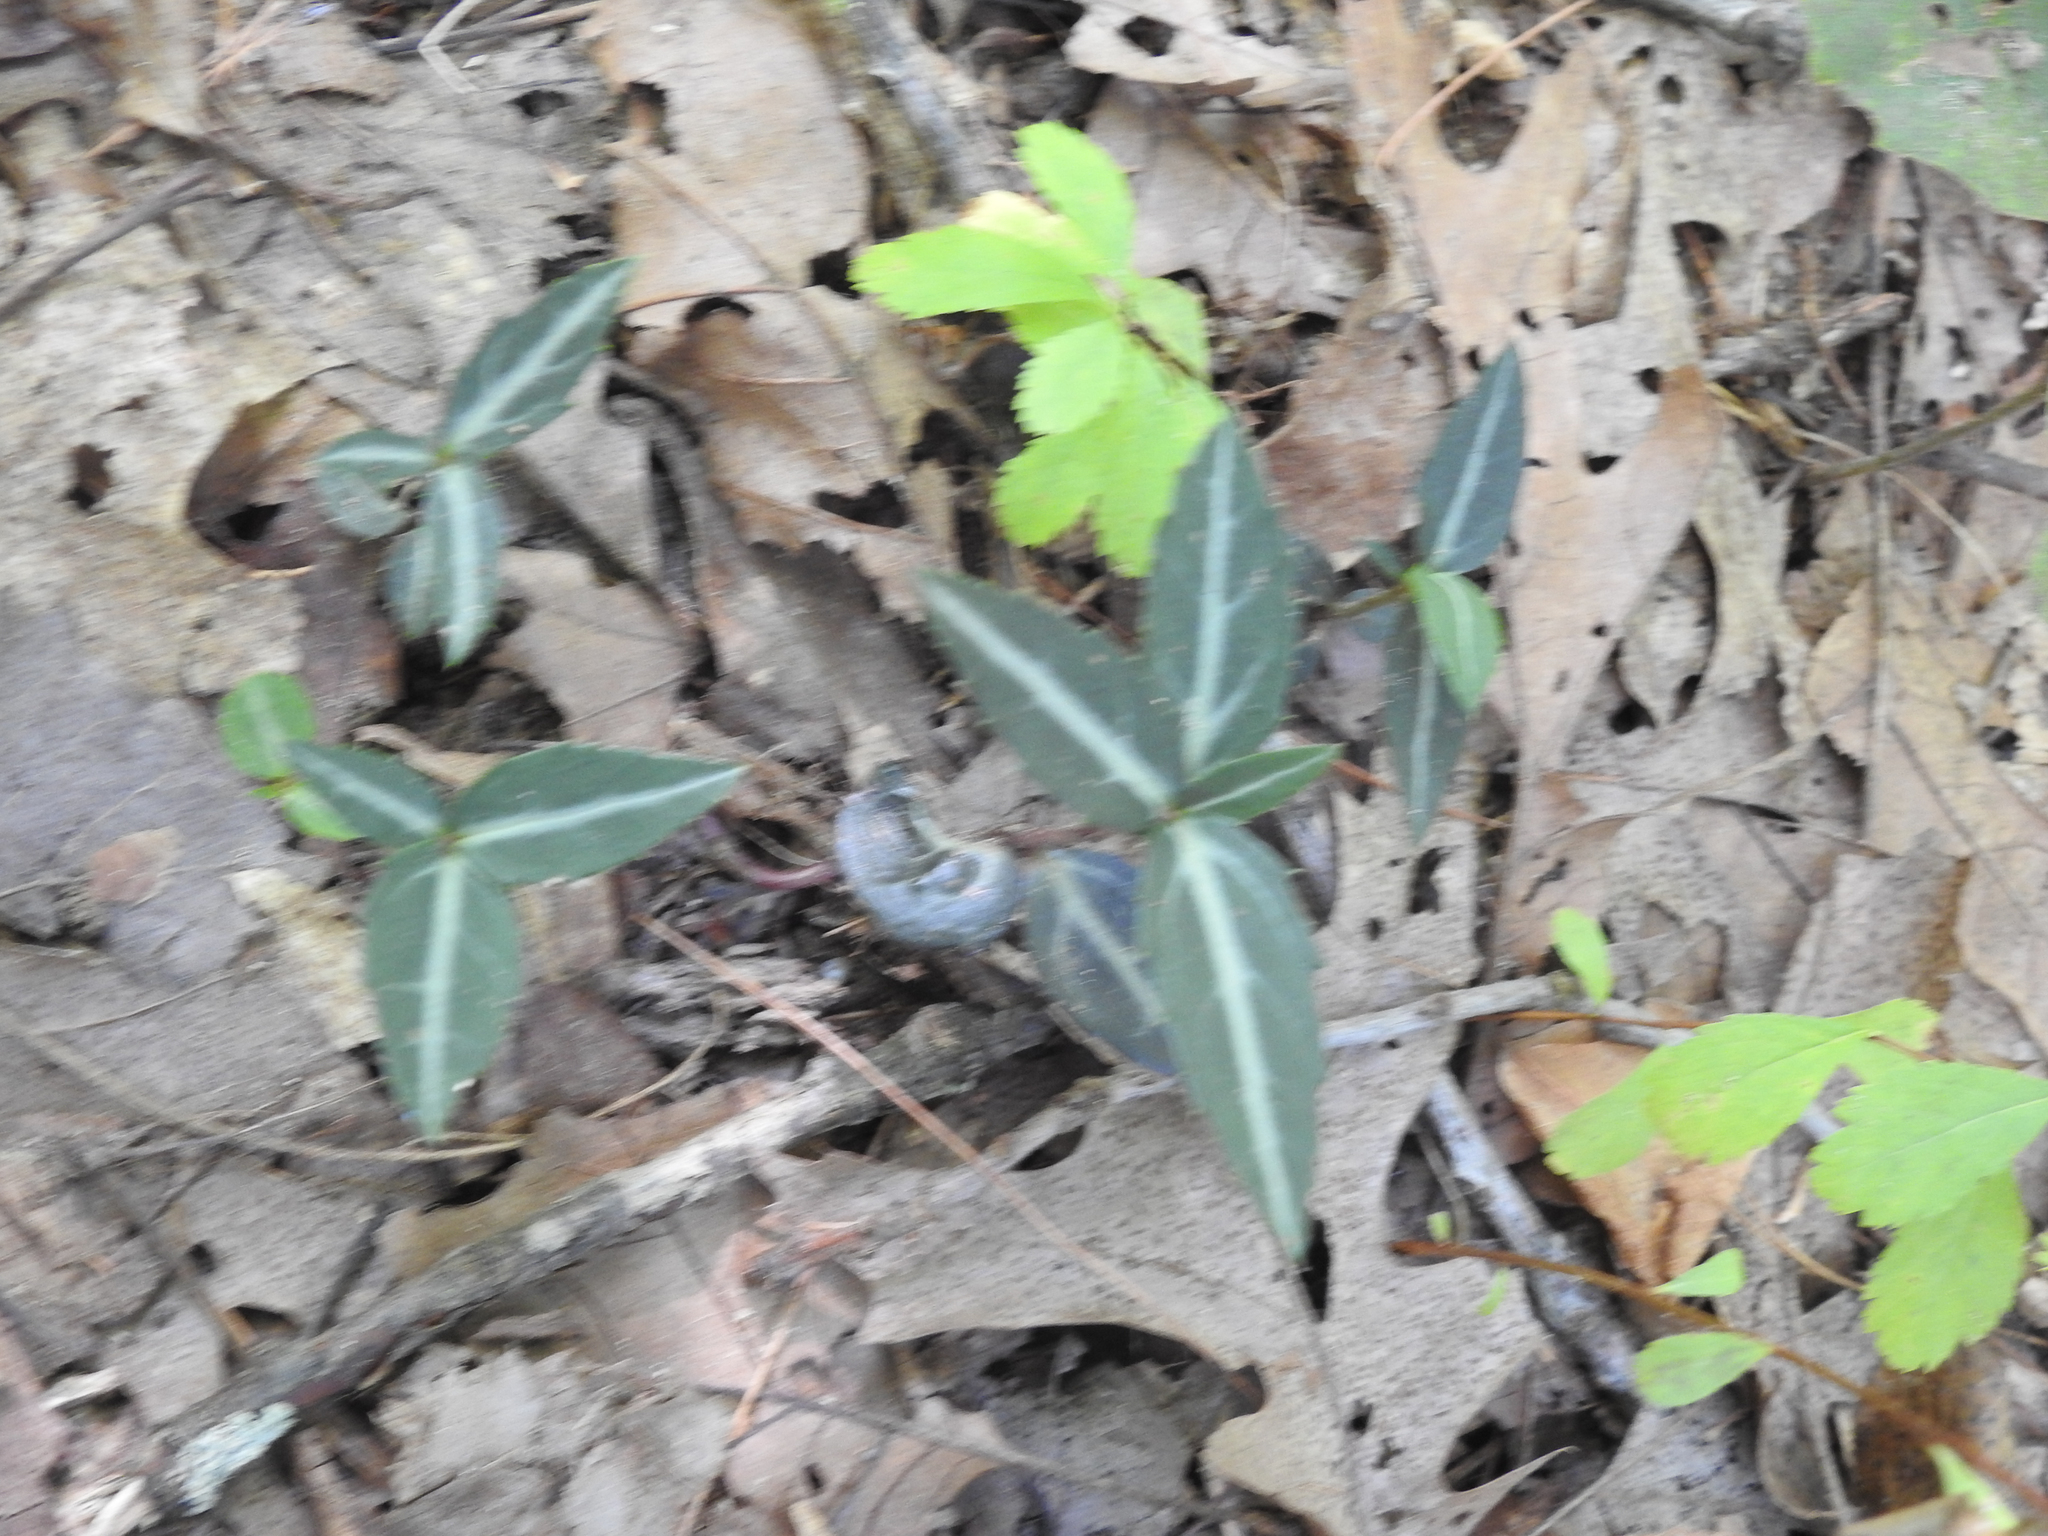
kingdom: Plantae
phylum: Tracheophyta
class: Magnoliopsida
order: Ericales
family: Ericaceae
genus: Chimaphila
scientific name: Chimaphila maculata
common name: Spotted pipsissewa
